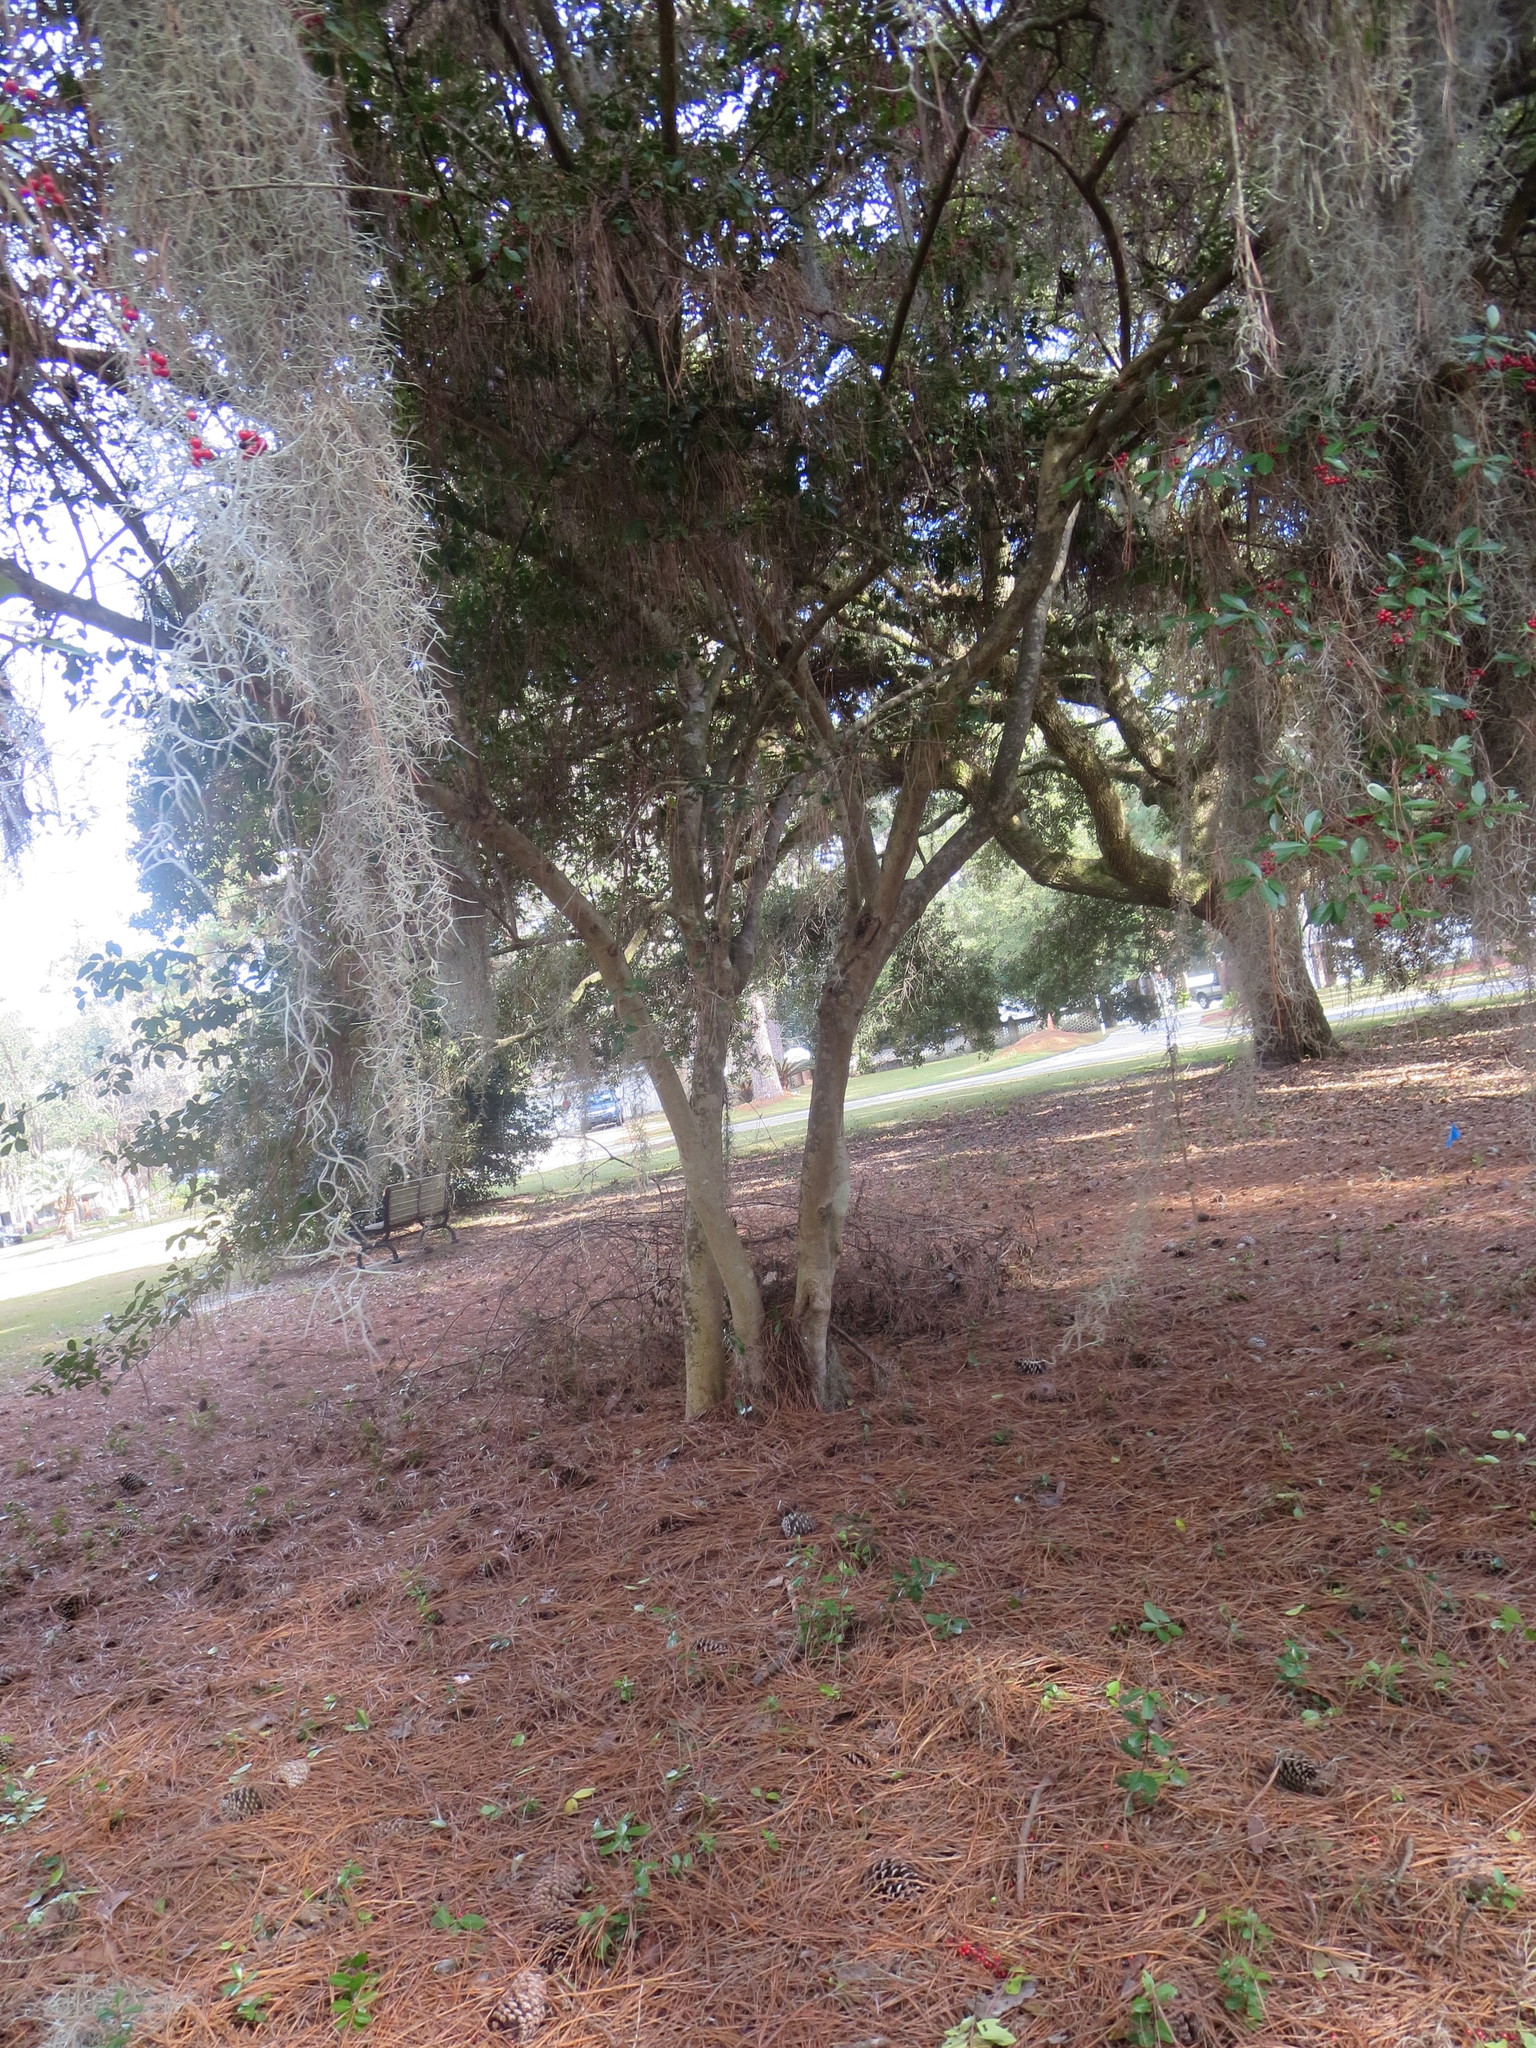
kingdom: Plantae
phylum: Tracheophyta
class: Magnoliopsida
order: Aquifoliales
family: Aquifoliaceae
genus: Ilex
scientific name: Ilex vomitoria
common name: Yaupon holly
